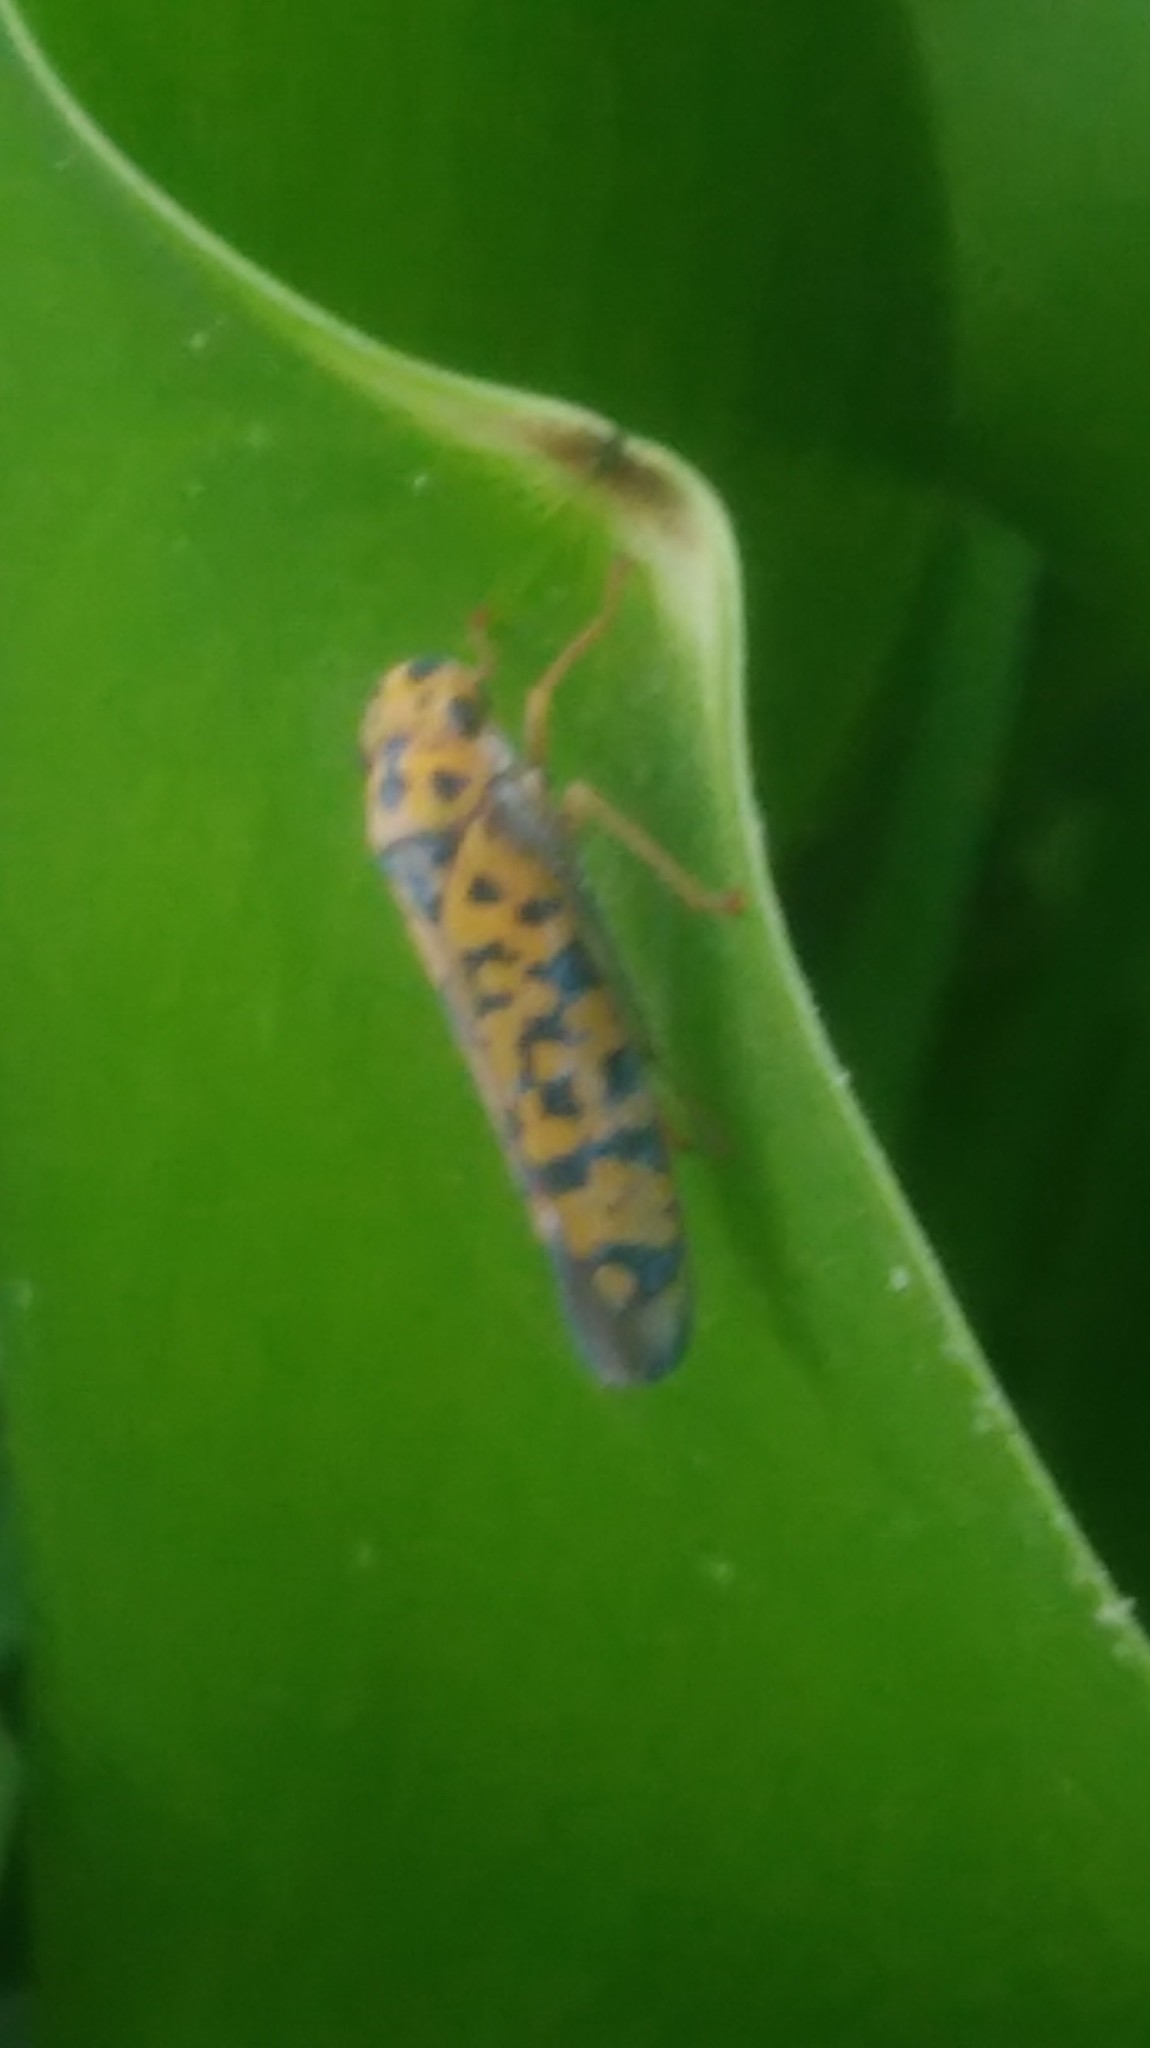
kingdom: Animalia
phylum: Arthropoda
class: Insecta
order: Hemiptera
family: Cicadellidae
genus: Pawiloma
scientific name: Pawiloma victima
